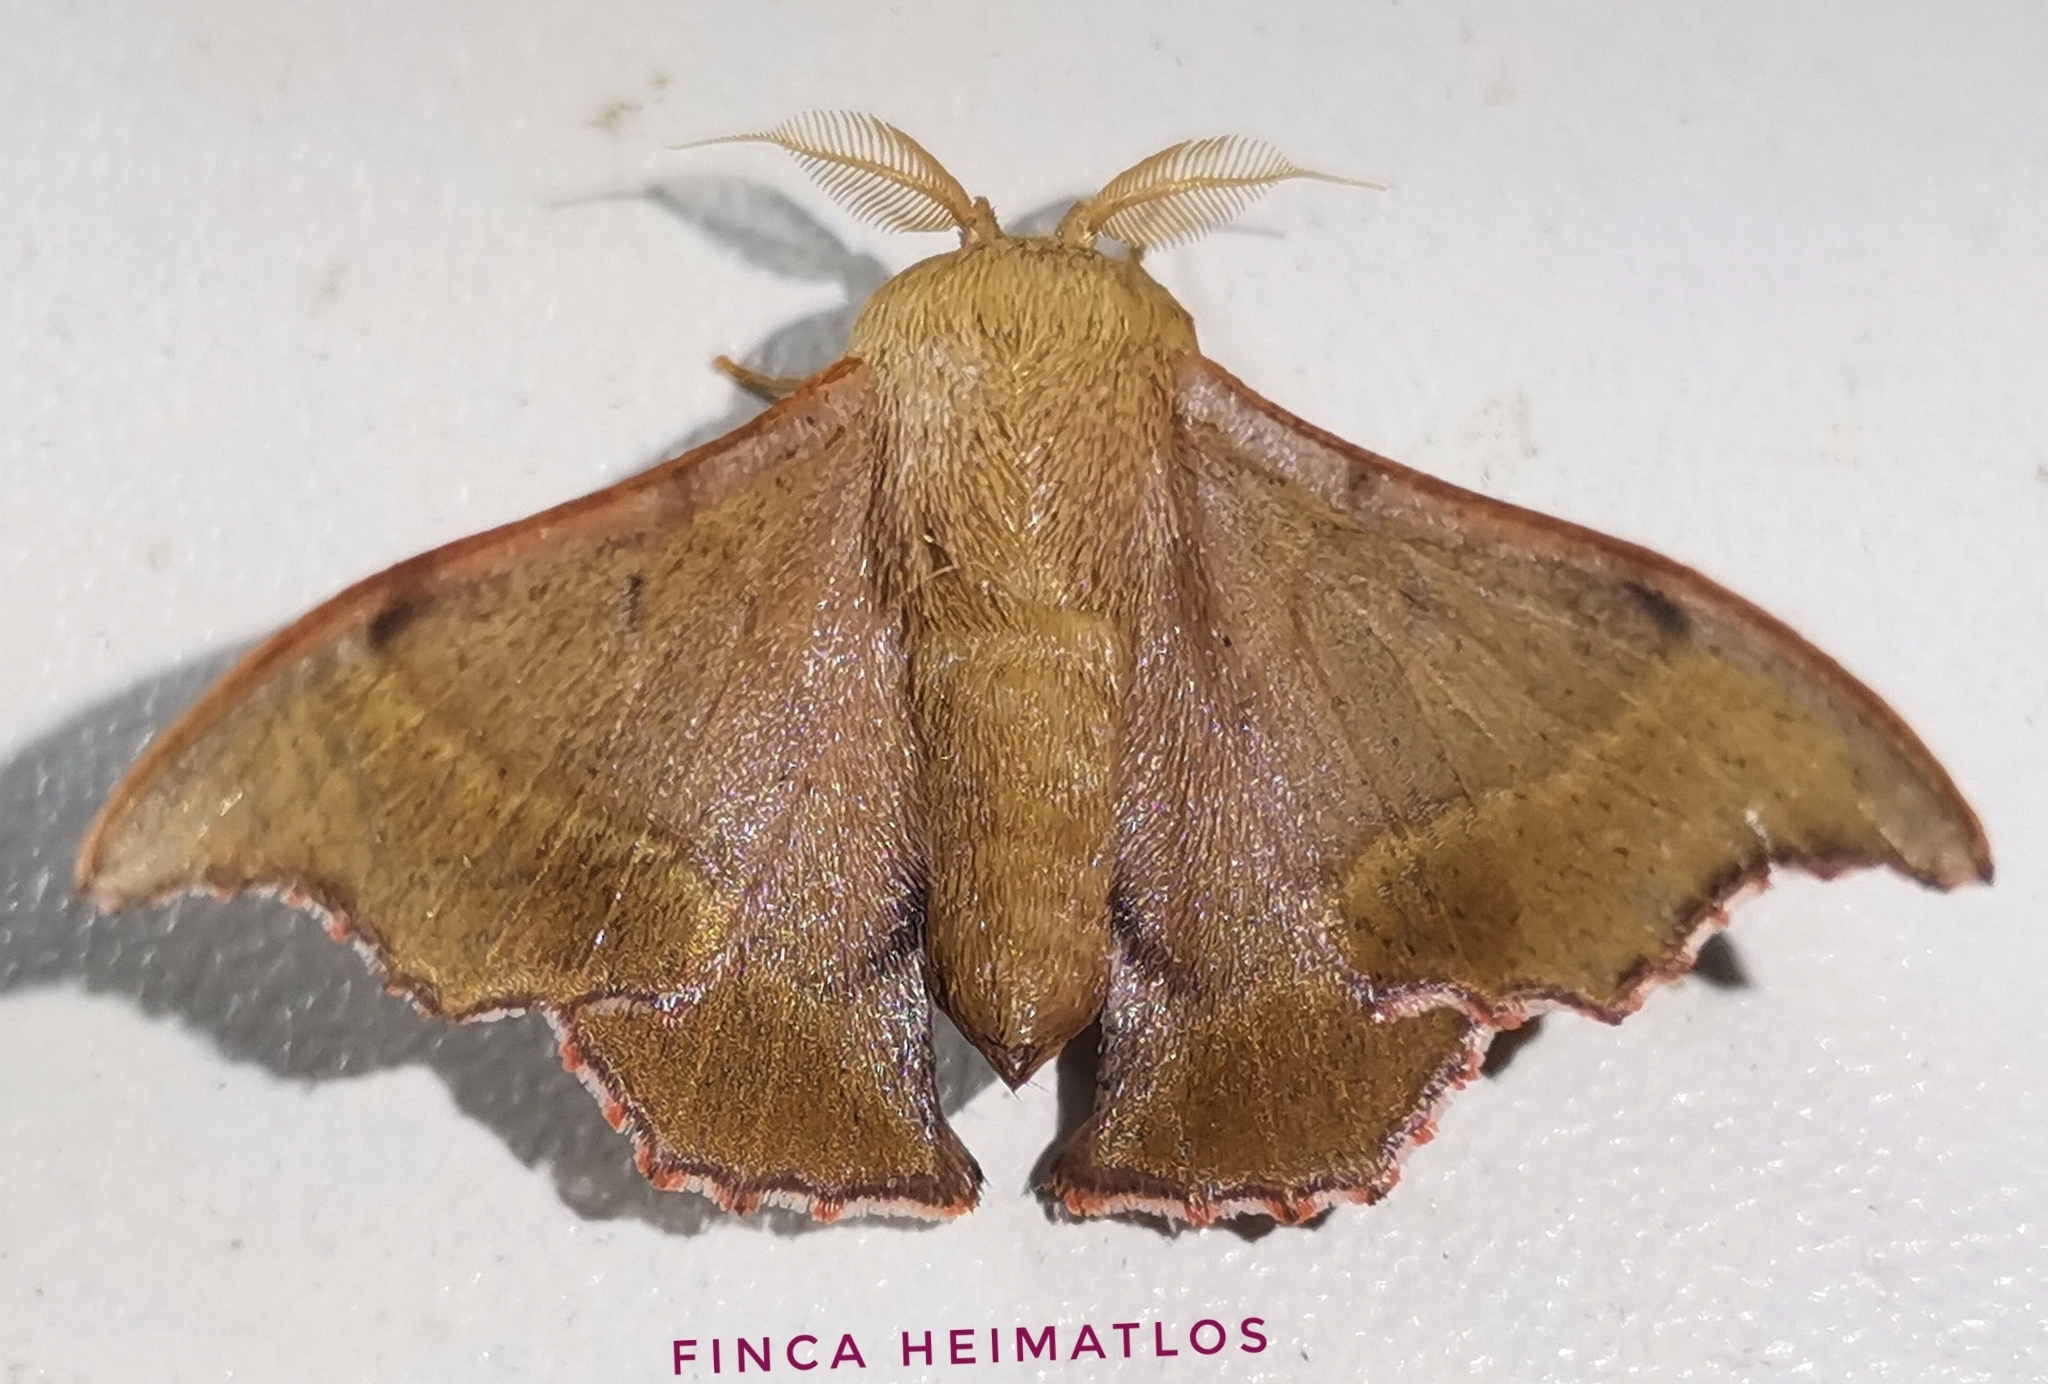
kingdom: Animalia
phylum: Arthropoda
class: Insecta
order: Lepidoptera
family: Mimallonidae
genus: Lacosoma
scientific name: Lacosoma oyapoca
